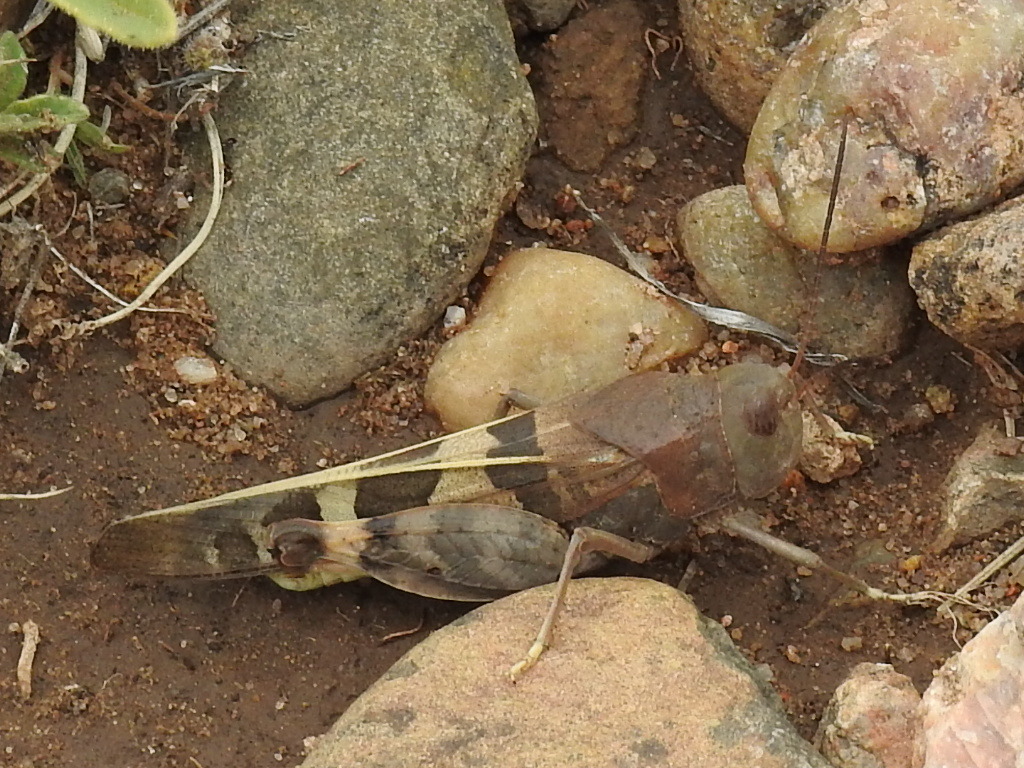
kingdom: Animalia
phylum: Arthropoda
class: Insecta
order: Orthoptera
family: Acrididae
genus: Leprus
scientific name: Leprus wheelerii
